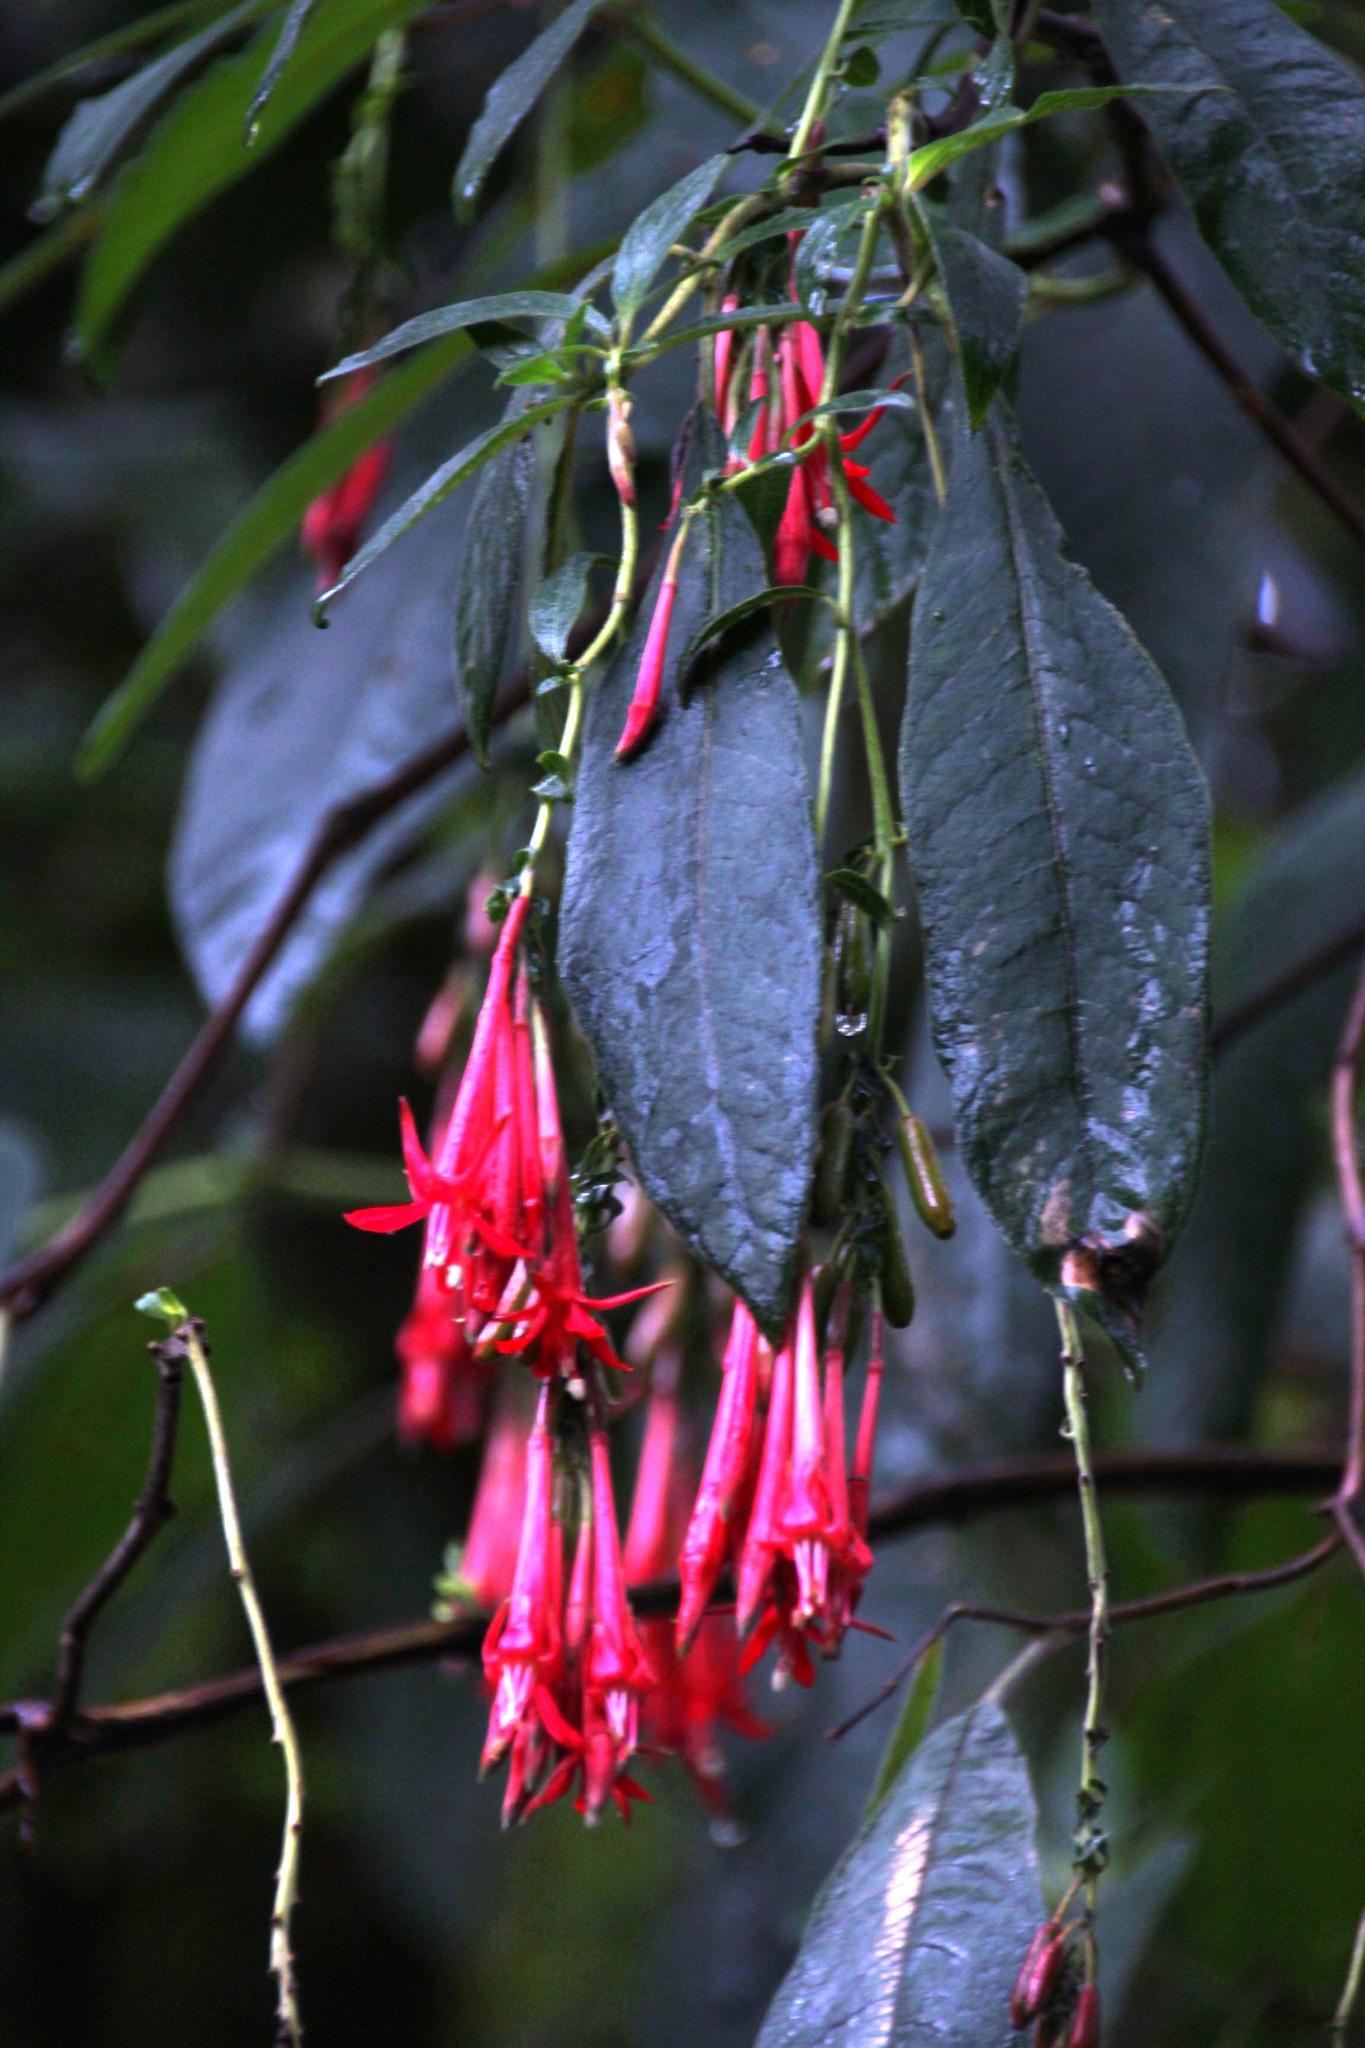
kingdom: Plantae
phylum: Tracheophyta
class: Magnoliopsida
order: Myrtales
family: Onagraceae
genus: Fuchsia
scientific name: Fuchsia boliviana
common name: Bolivian fuchsia
